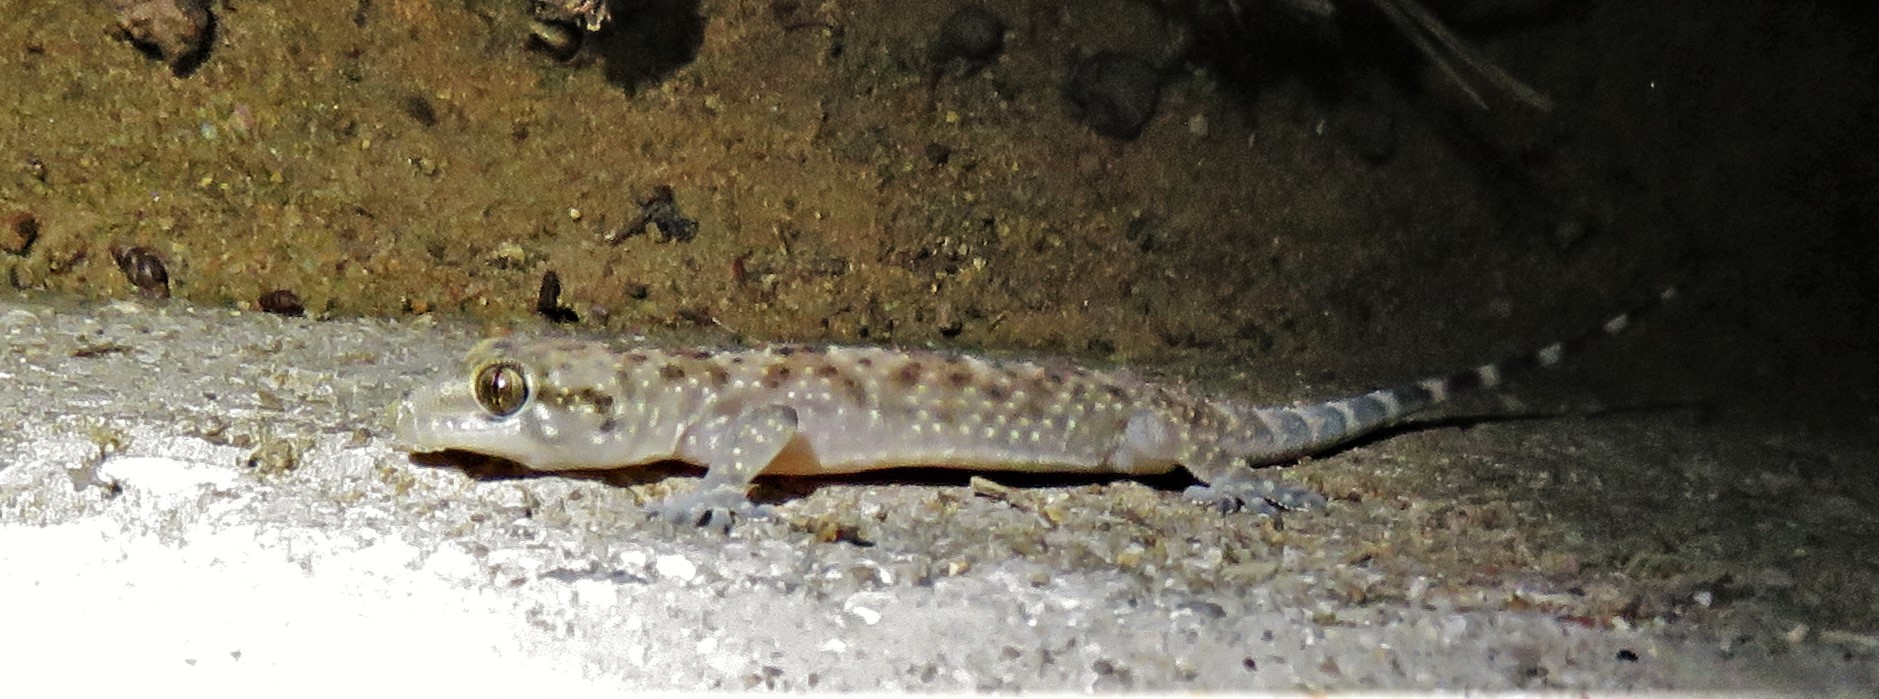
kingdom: Animalia
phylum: Chordata
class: Squamata
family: Gekkonidae
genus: Hemidactylus
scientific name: Hemidactylus turcicus
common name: Turkish gecko
